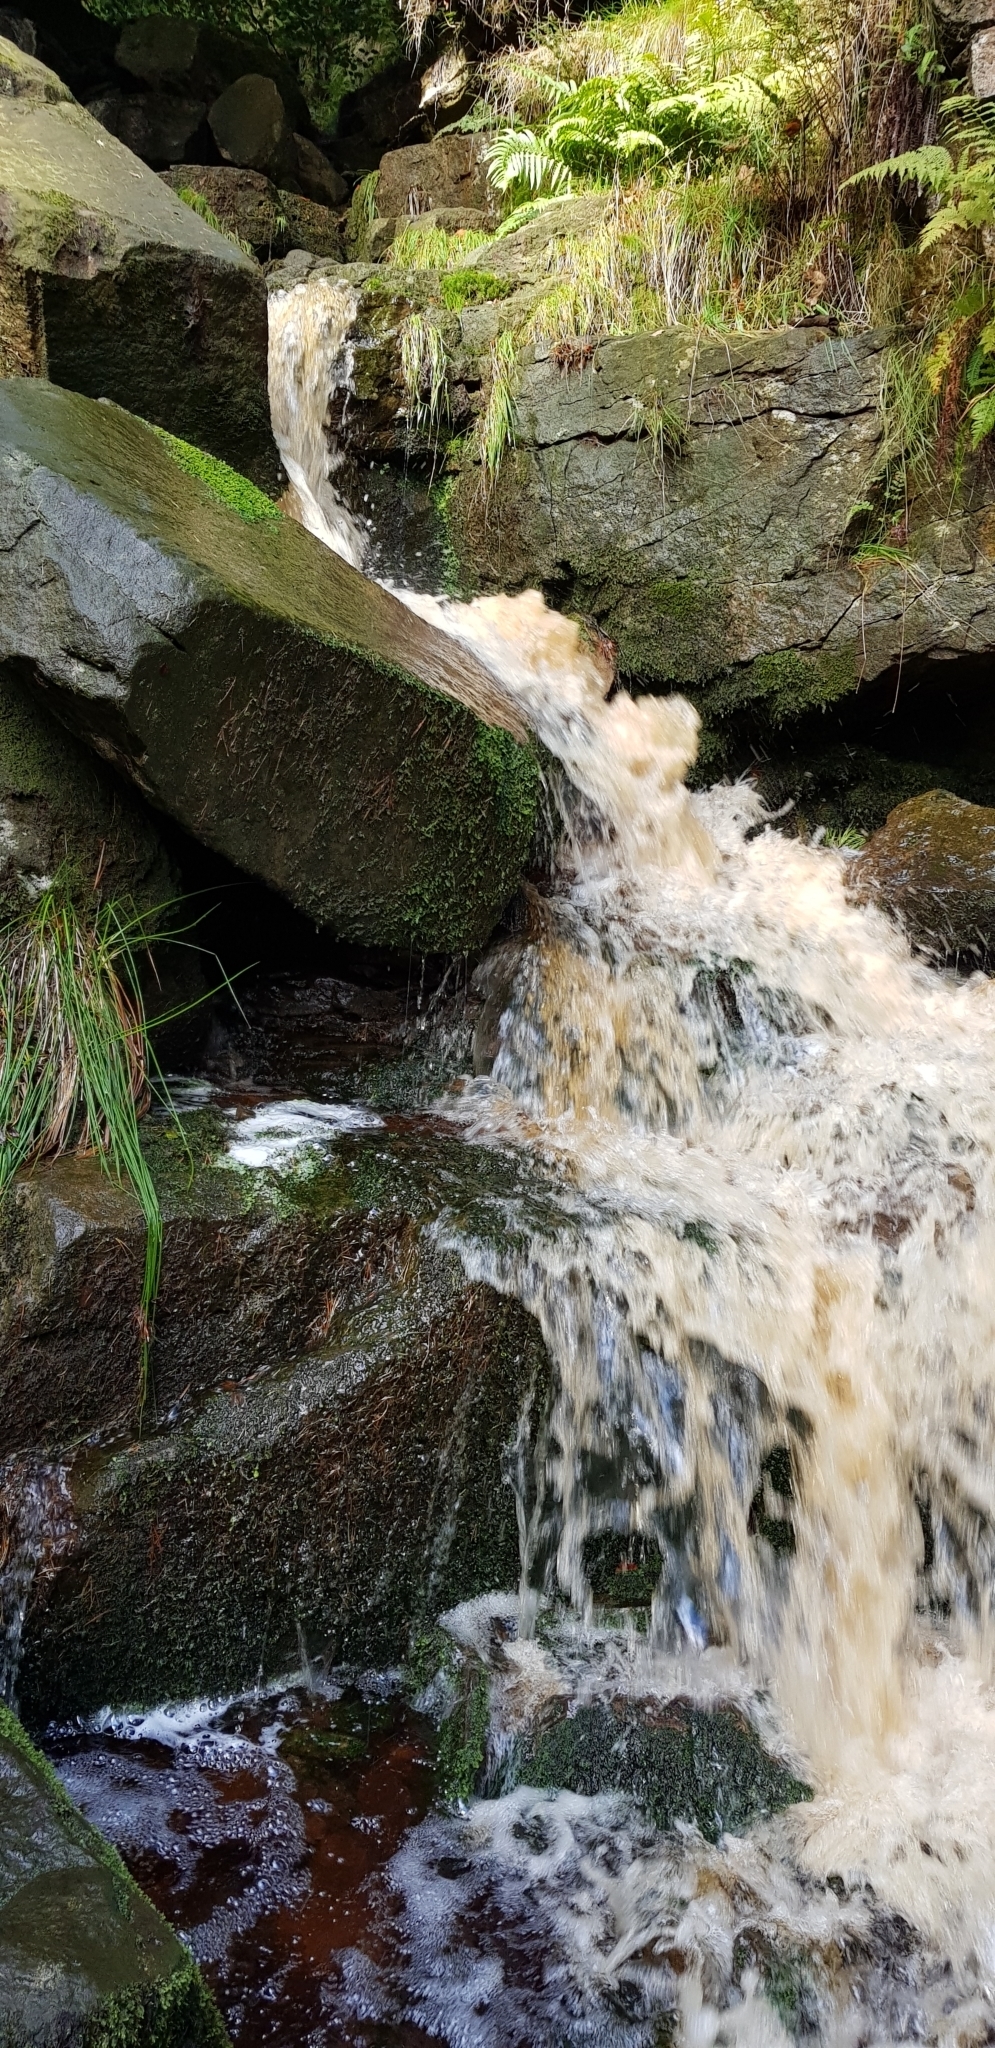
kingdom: Plantae
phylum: Bryophyta
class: Bryopsida
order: Hypnales
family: Myuriaceae
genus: Hyocomium
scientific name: Hyocomium armoricum
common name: Flagellate feather-moss
